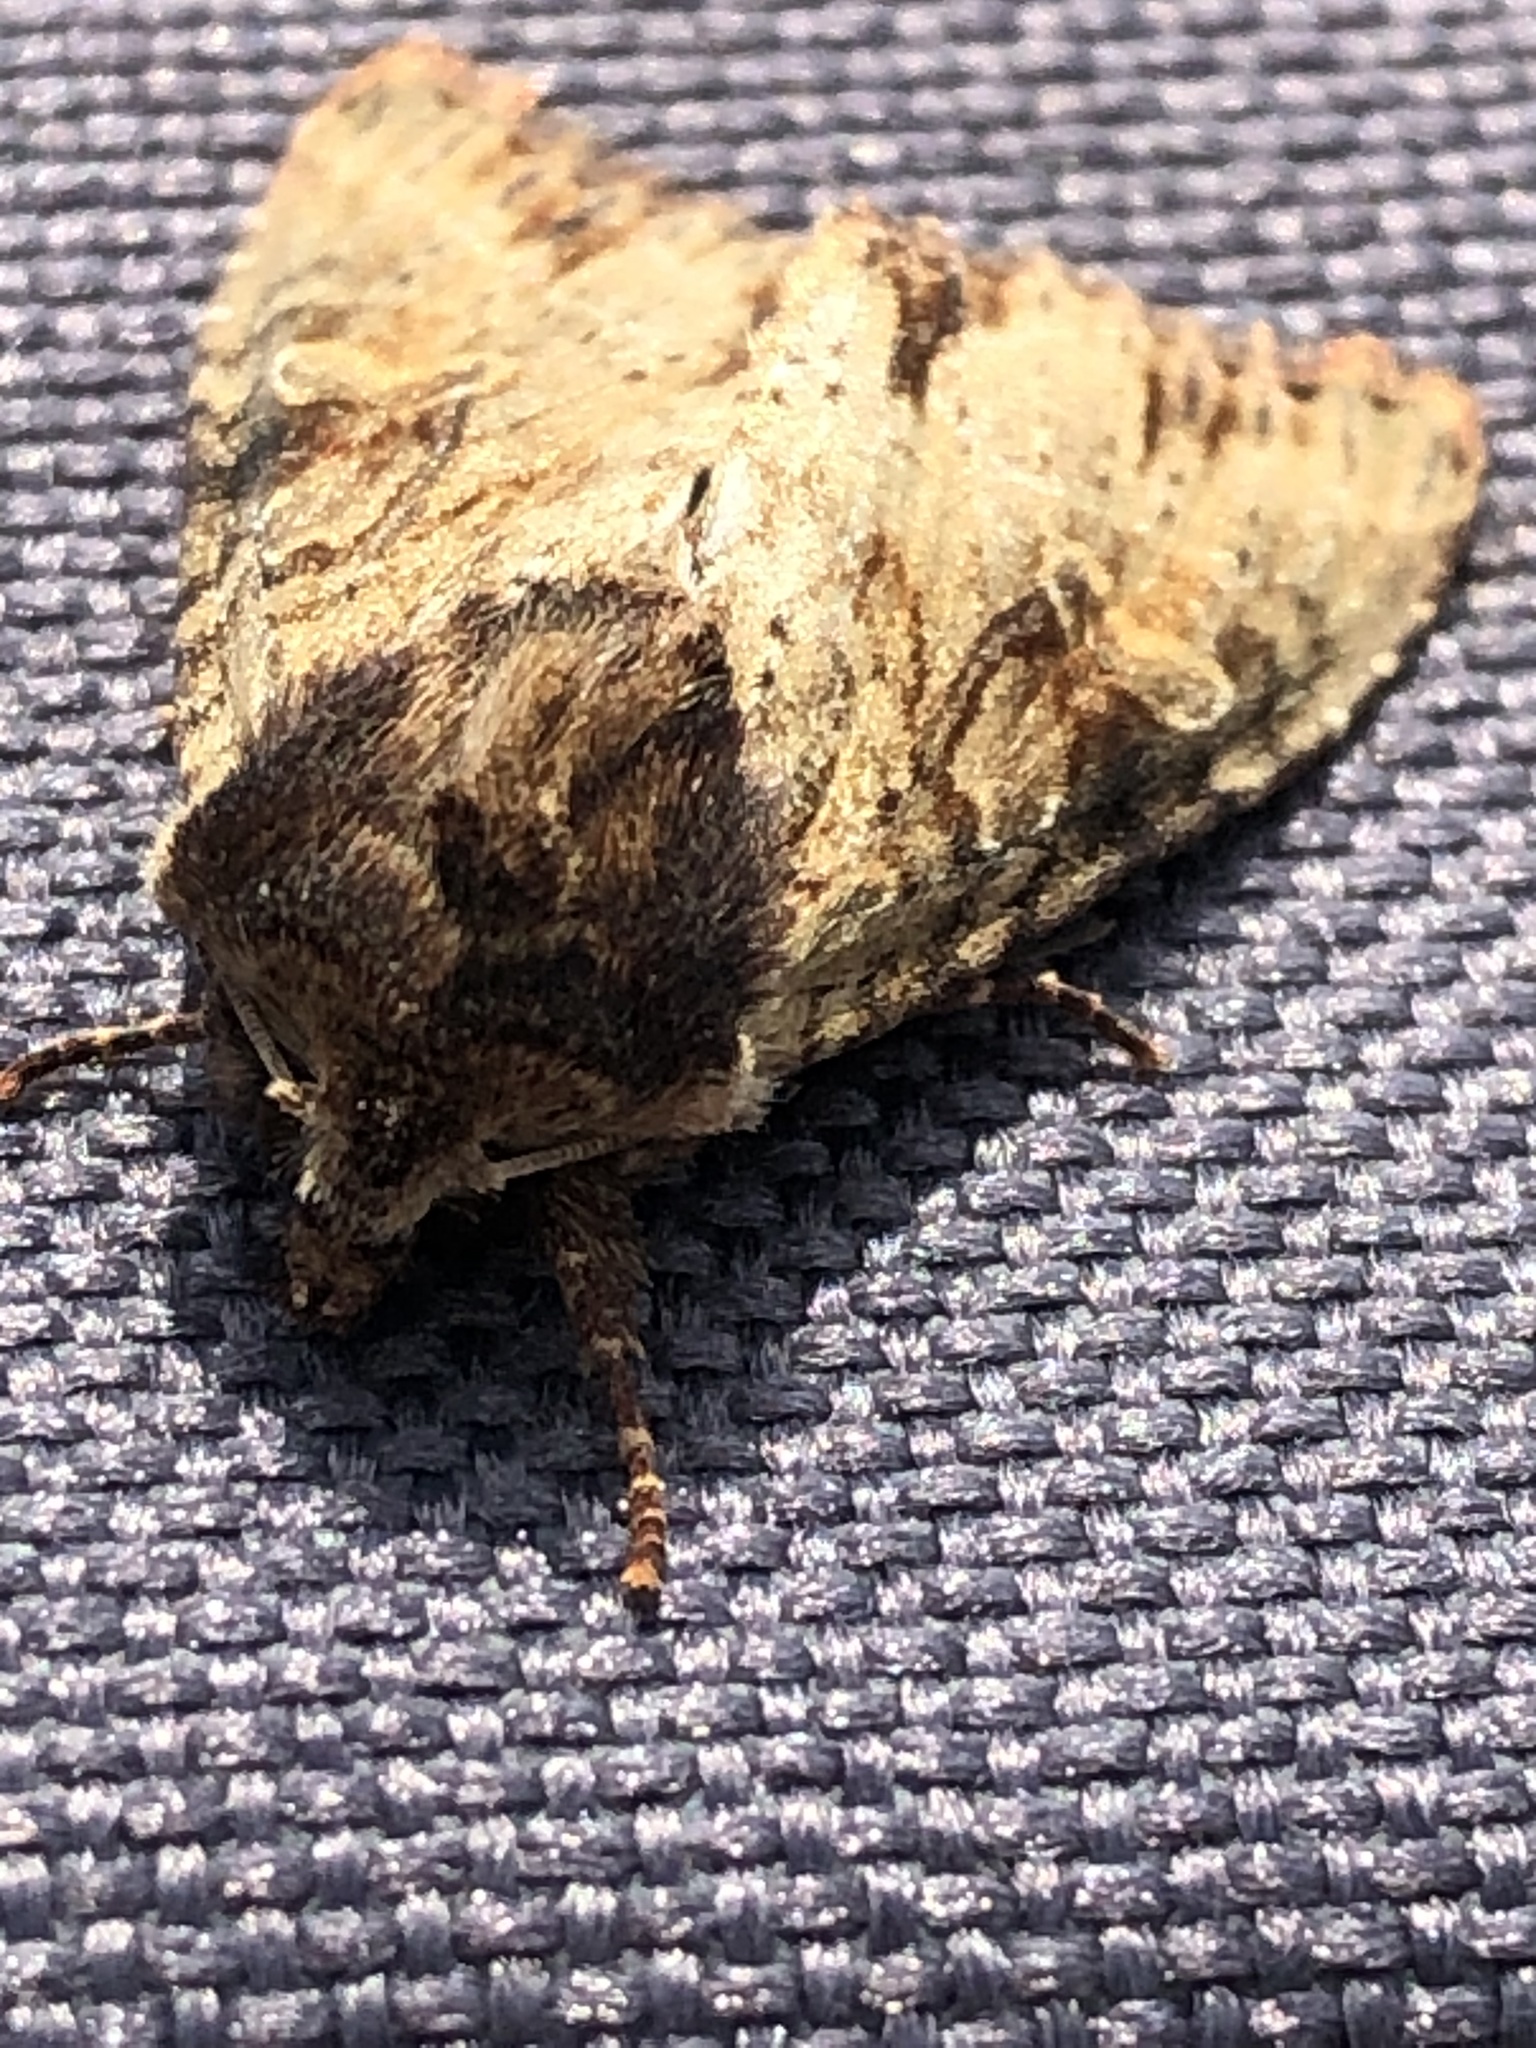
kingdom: Animalia
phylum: Arthropoda
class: Insecta
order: Lepidoptera
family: Noctuidae
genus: Apamea
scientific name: Apamea crenata
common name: Clouded-bordered brindle
